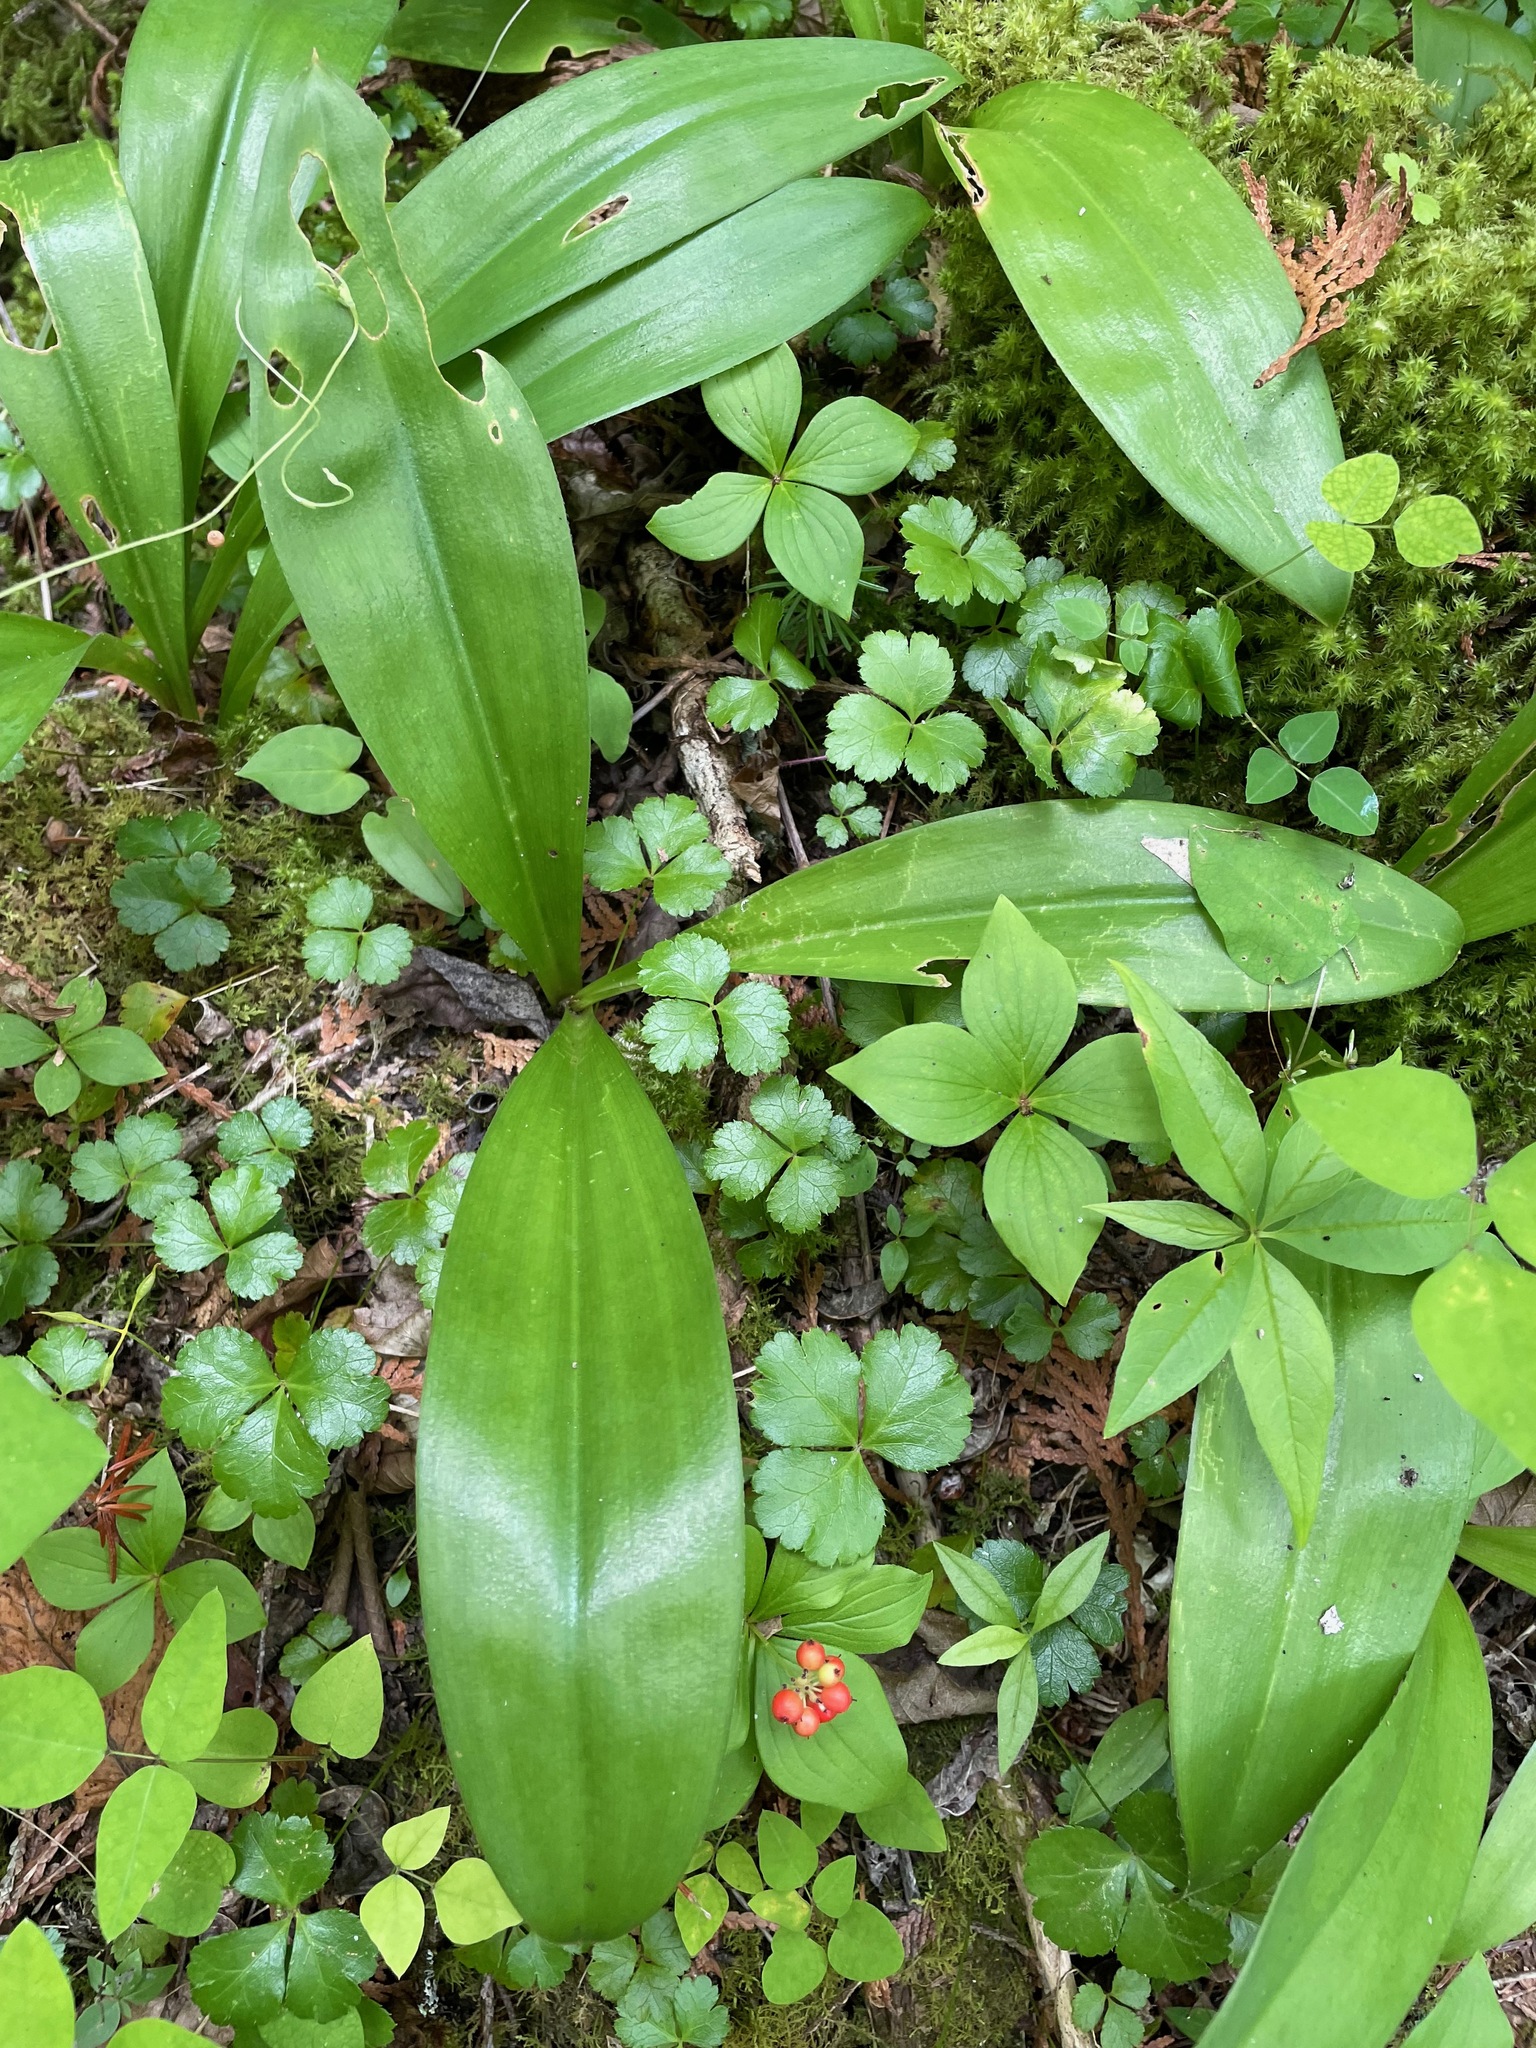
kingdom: Plantae
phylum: Tracheophyta
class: Liliopsida
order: Liliales
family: Liliaceae
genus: Clintonia
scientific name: Clintonia borealis
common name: Yellow clintonia
